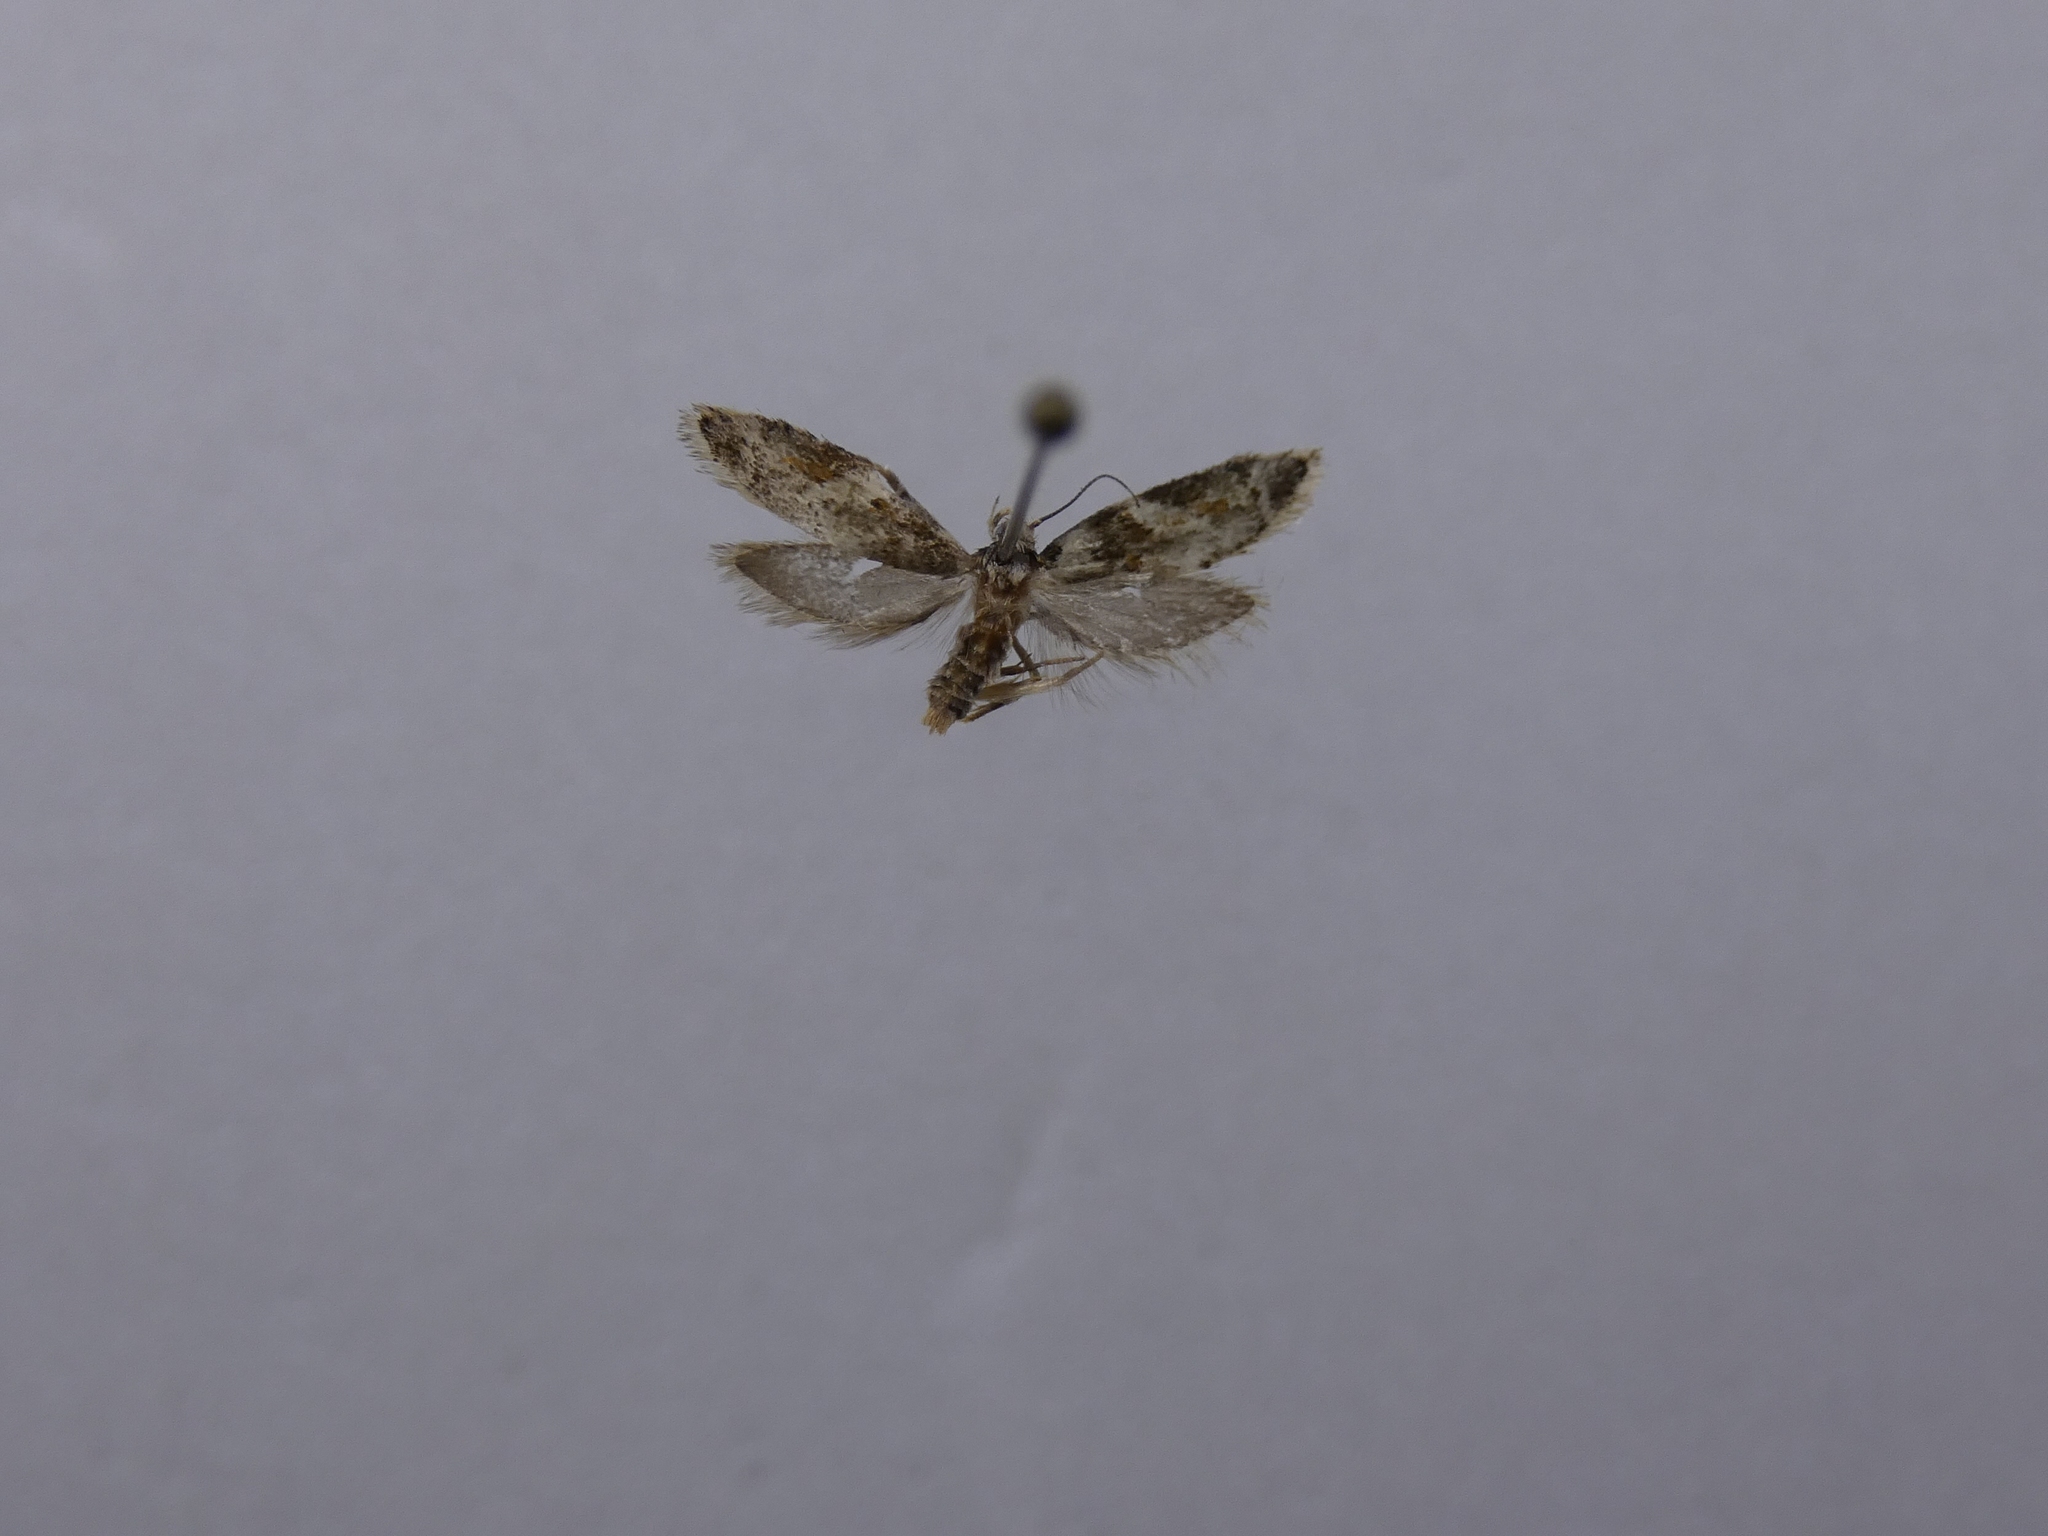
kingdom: Animalia
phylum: Arthropoda
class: Insecta
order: Lepidoptera
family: Oecophoridae
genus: Trachypepla
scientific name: Trachypepla galaxias
